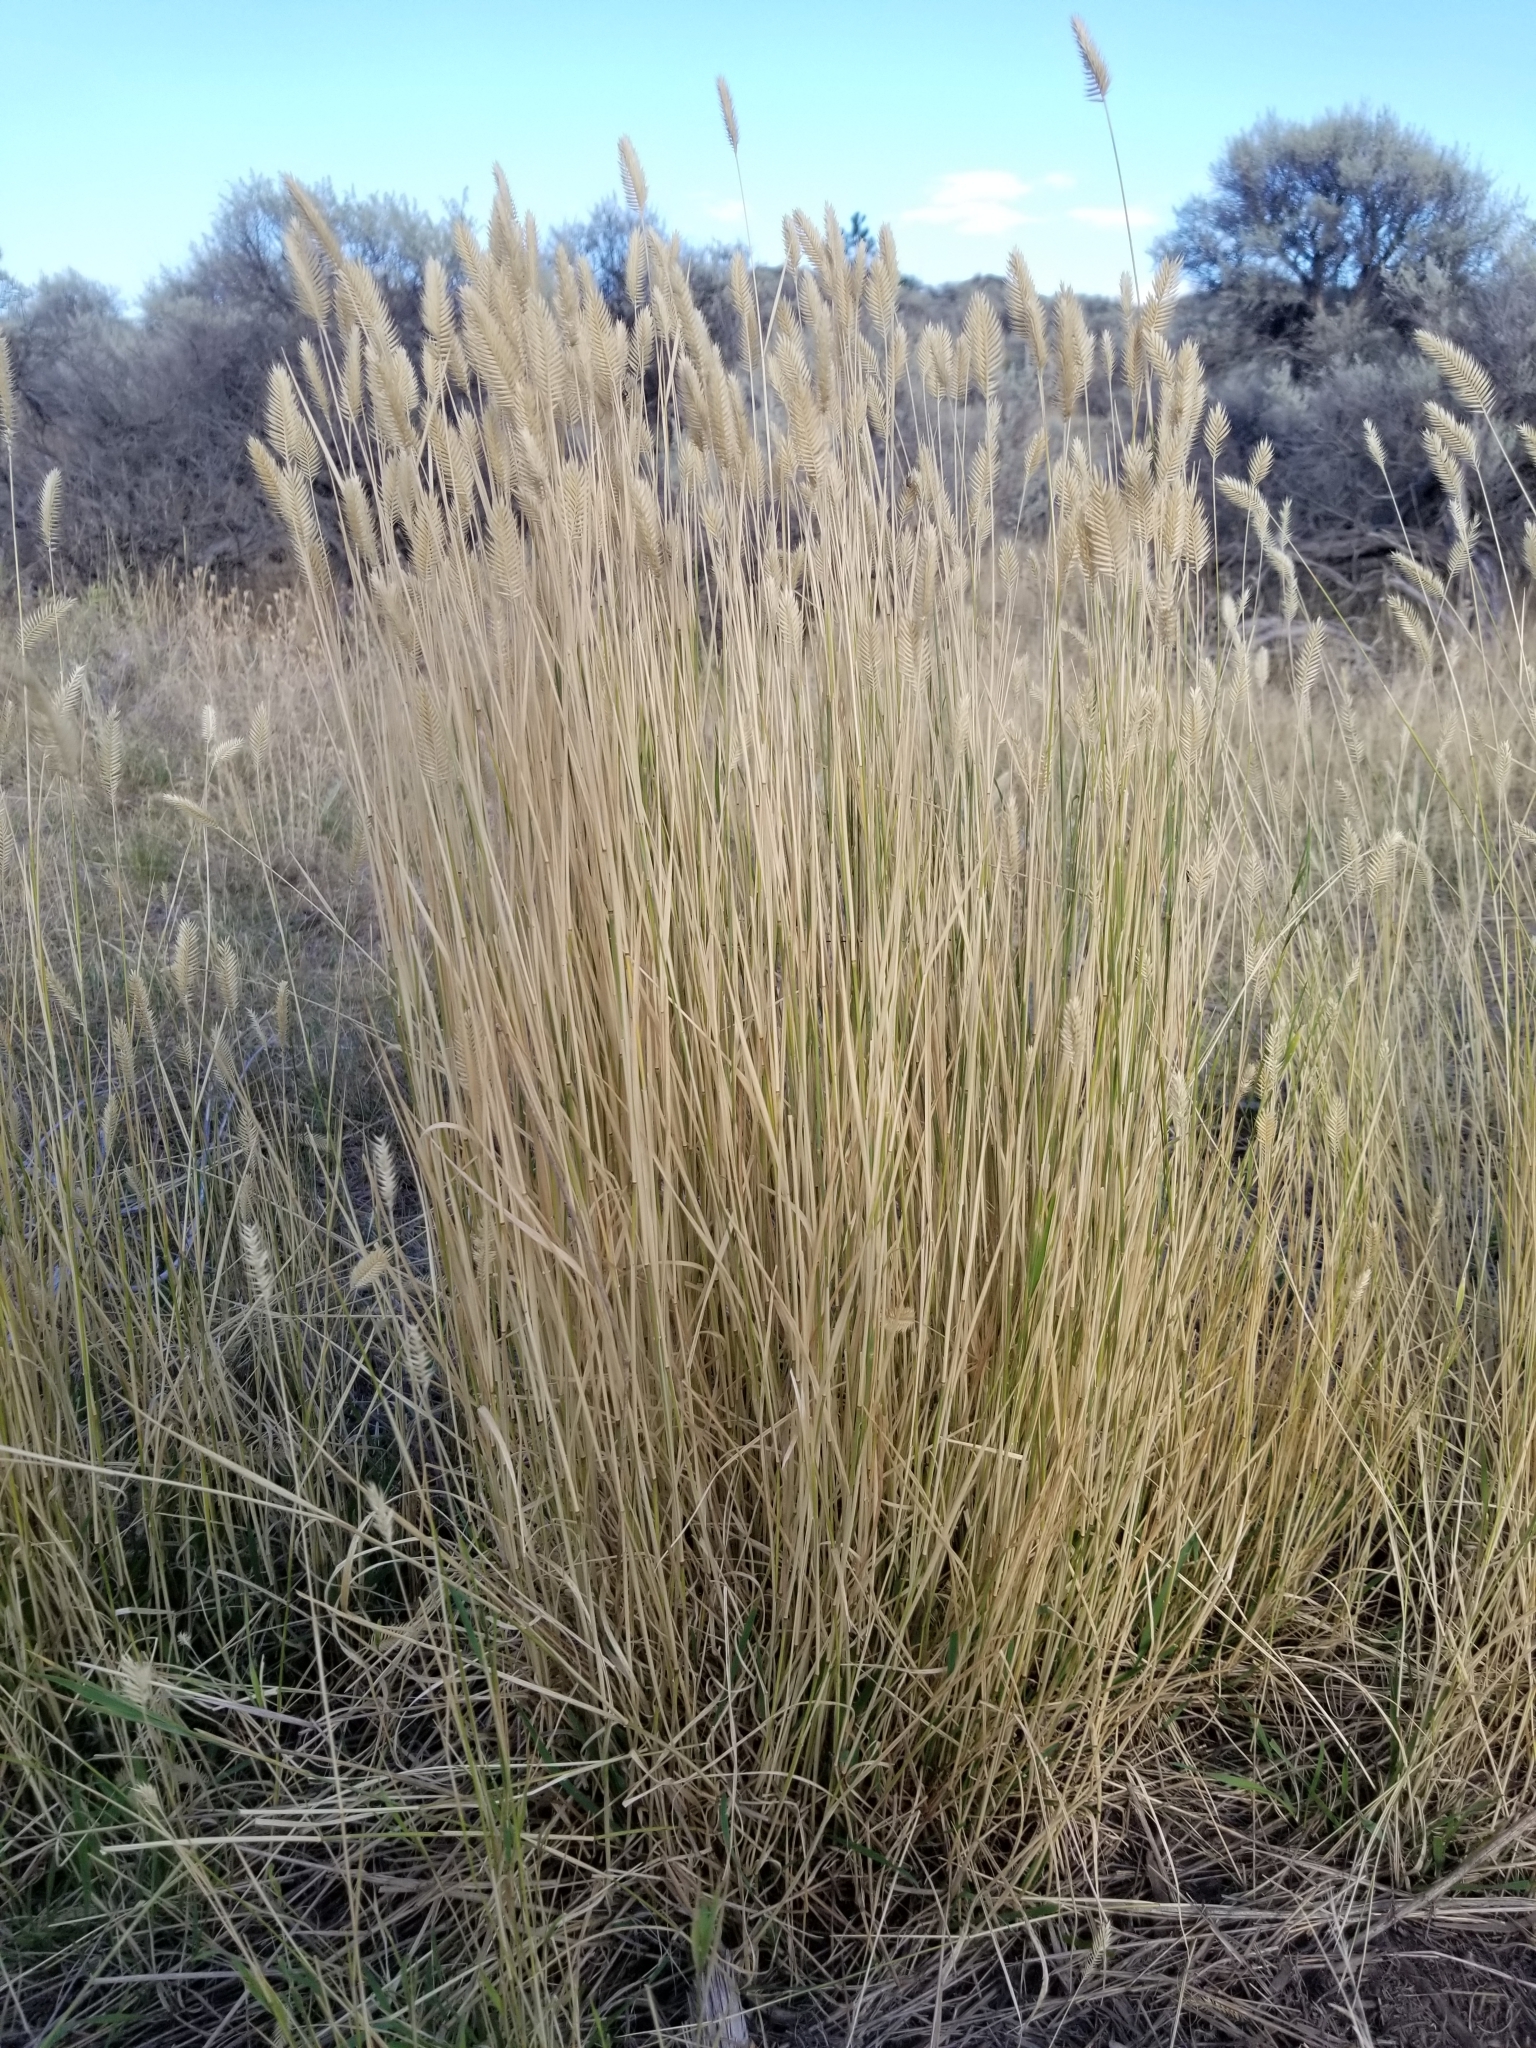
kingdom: Plantae
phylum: Tracheophyta
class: Liliopsida
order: Poales
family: Poaceae
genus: Agropyron
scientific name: Agropyron cristatum
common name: Crested wheatgrass
